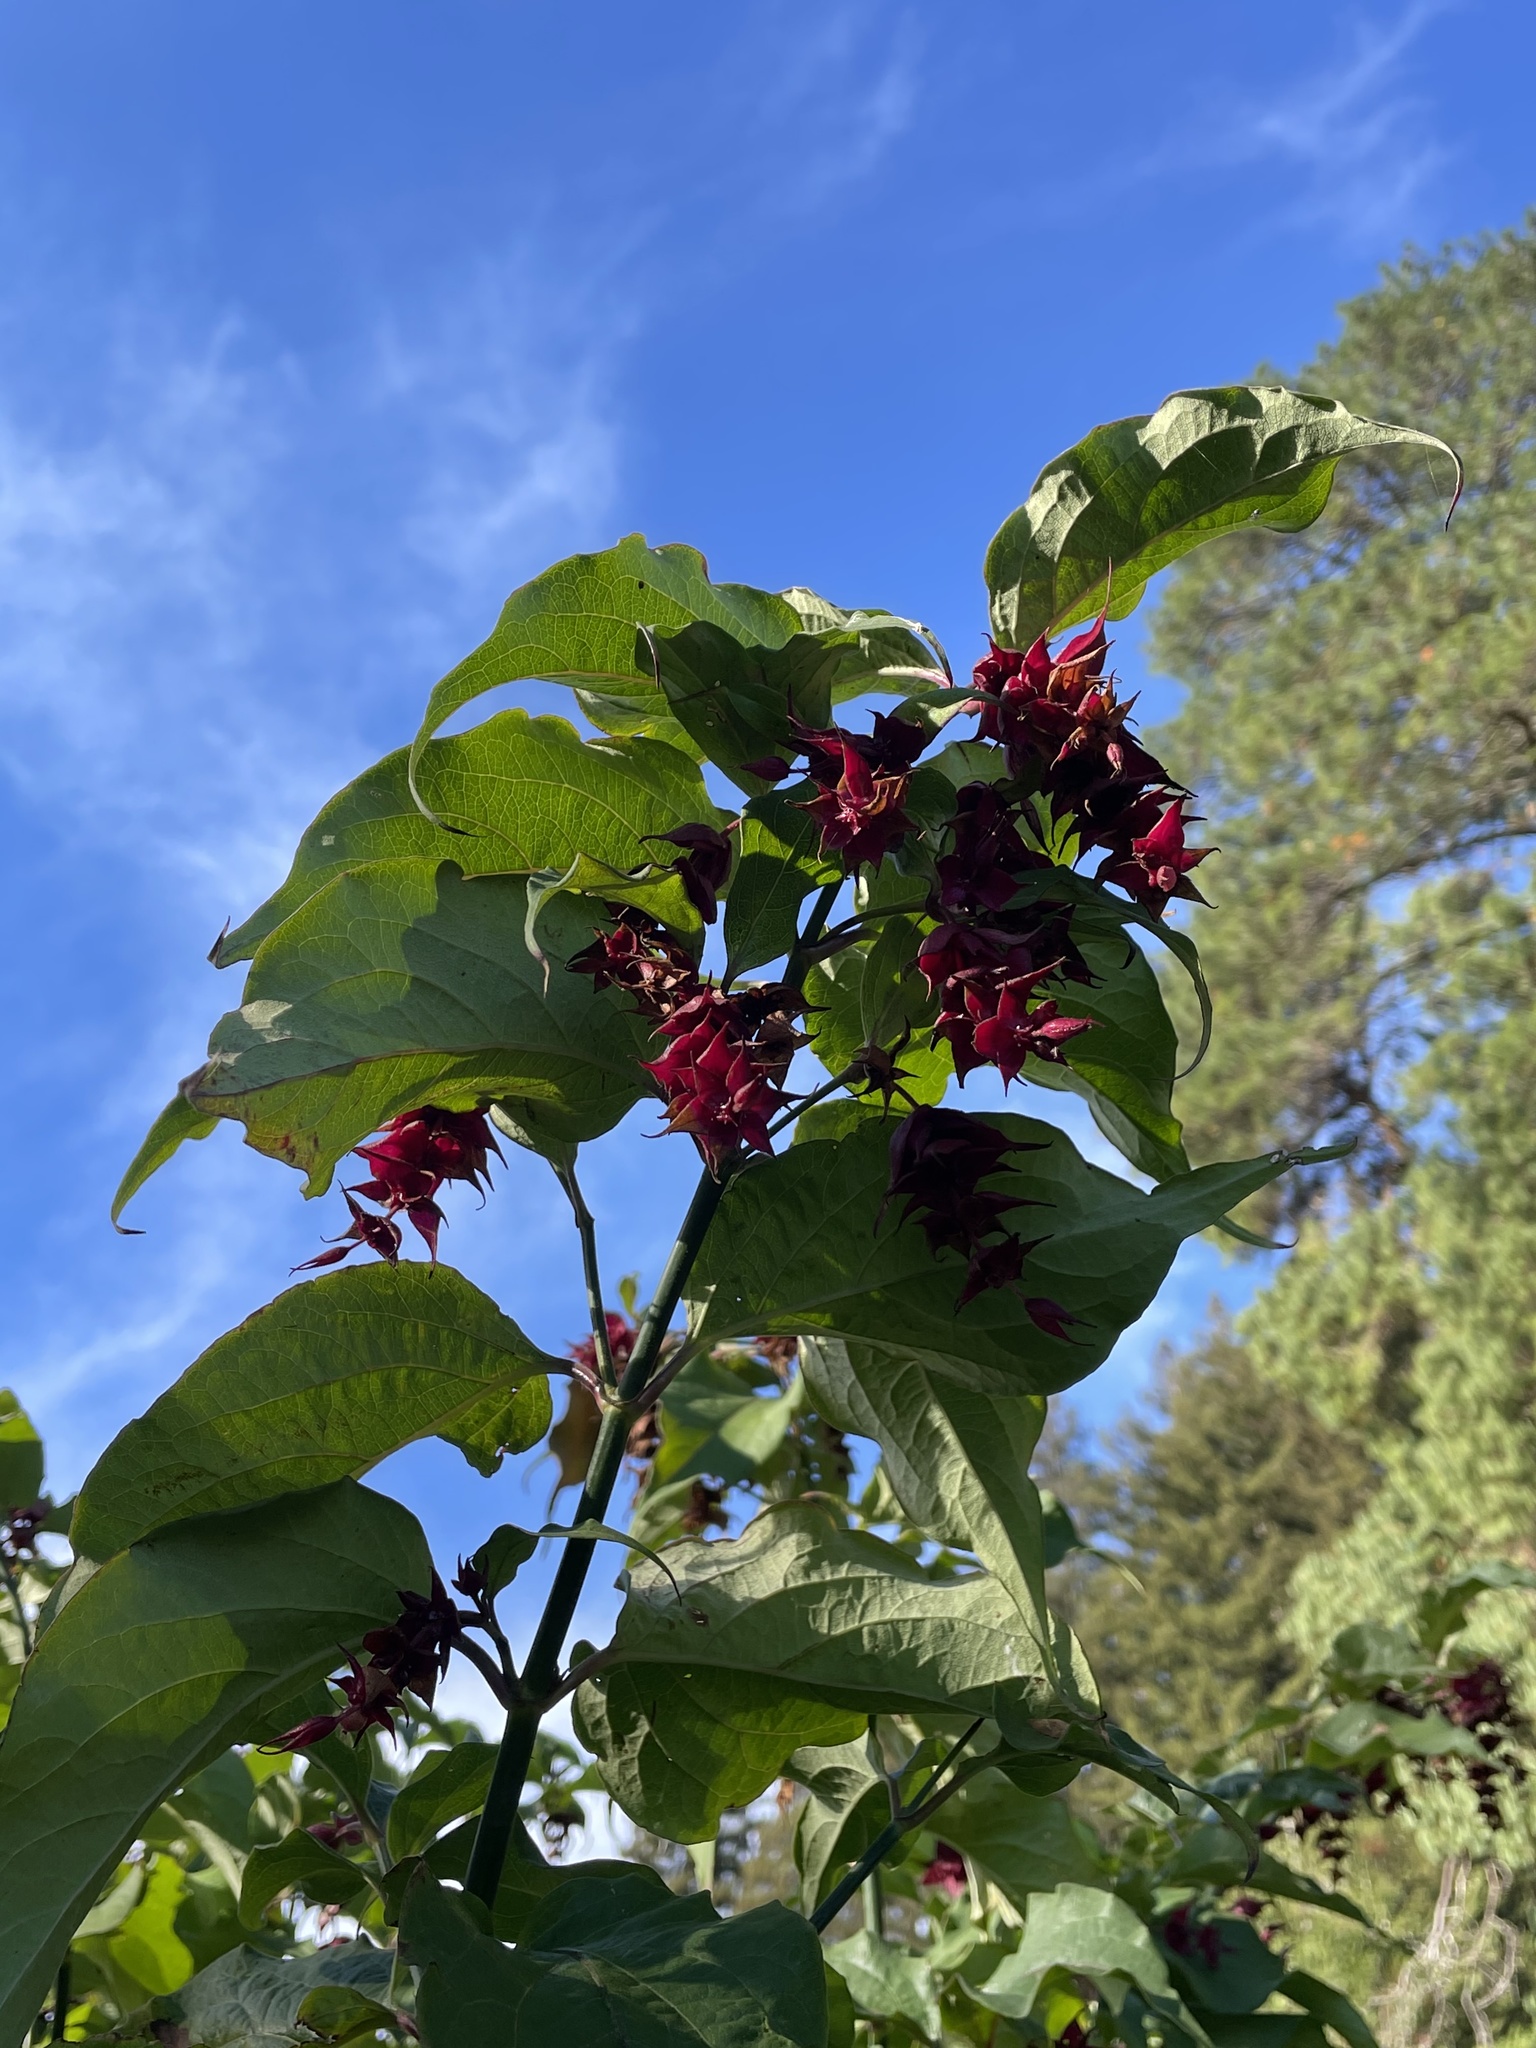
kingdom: Plantae
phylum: Tracheophyta
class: Magnoliopsida
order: Dipsacales
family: Caprifoliaceae
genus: Leycesteria
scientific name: Leycesteria formosa
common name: Himalayan honeysuckle
